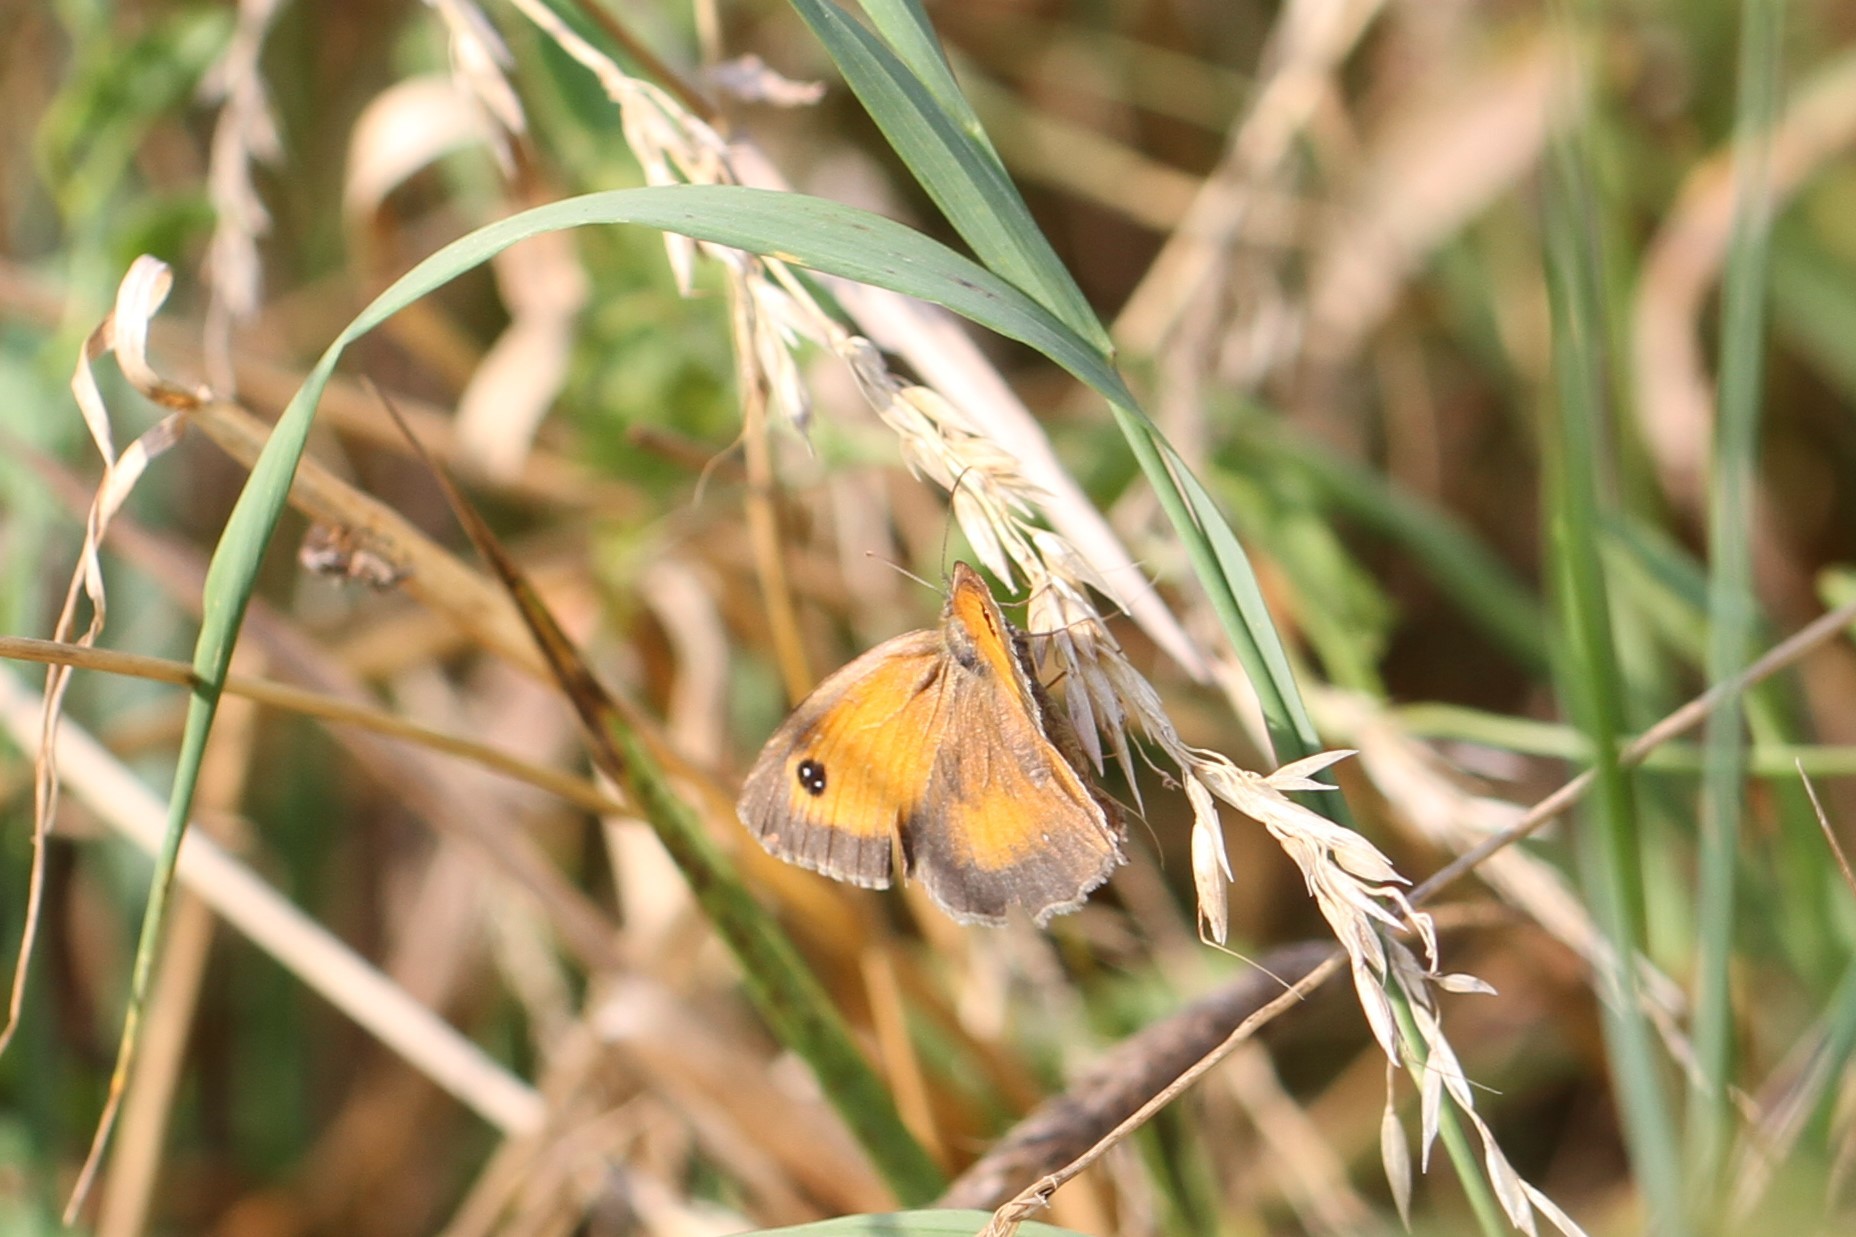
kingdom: Animalia
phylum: Arthropoda
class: Insecta
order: Lepidoptera
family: Nymphalidae
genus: Pyronia
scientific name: Pyronia tithonus
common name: Gatekeeper
